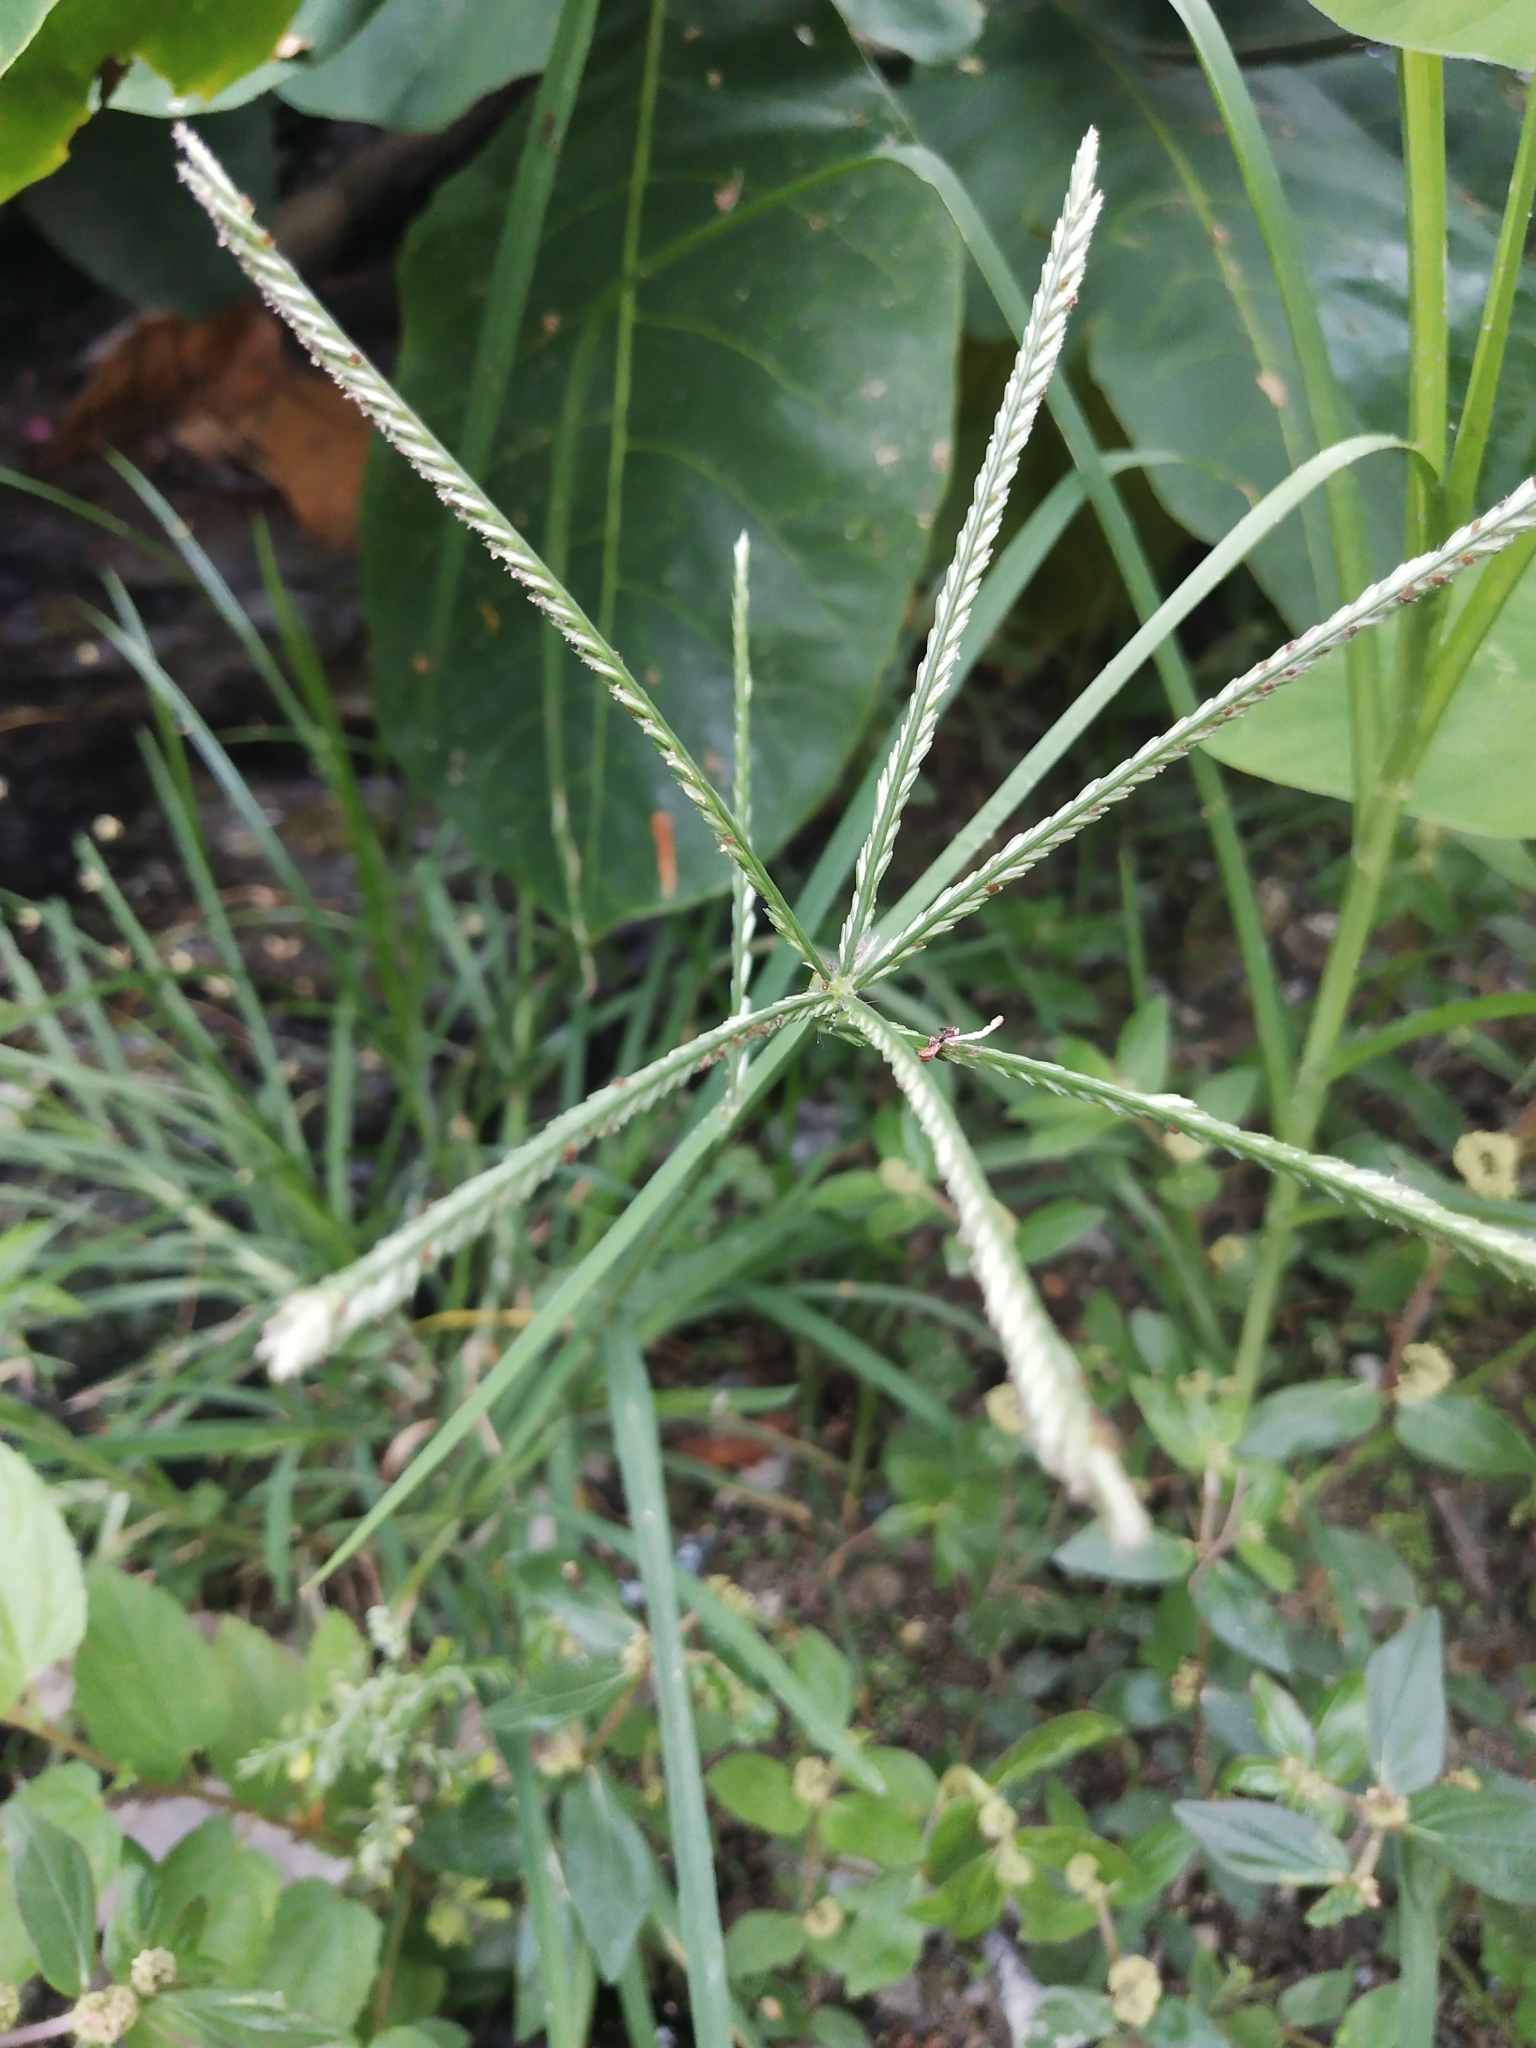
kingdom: Plantae
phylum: Tracheophyta
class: Liliopsida
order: Poales
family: Poaceae
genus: Eleusine
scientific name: Eleusine indica
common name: Yard-grass
